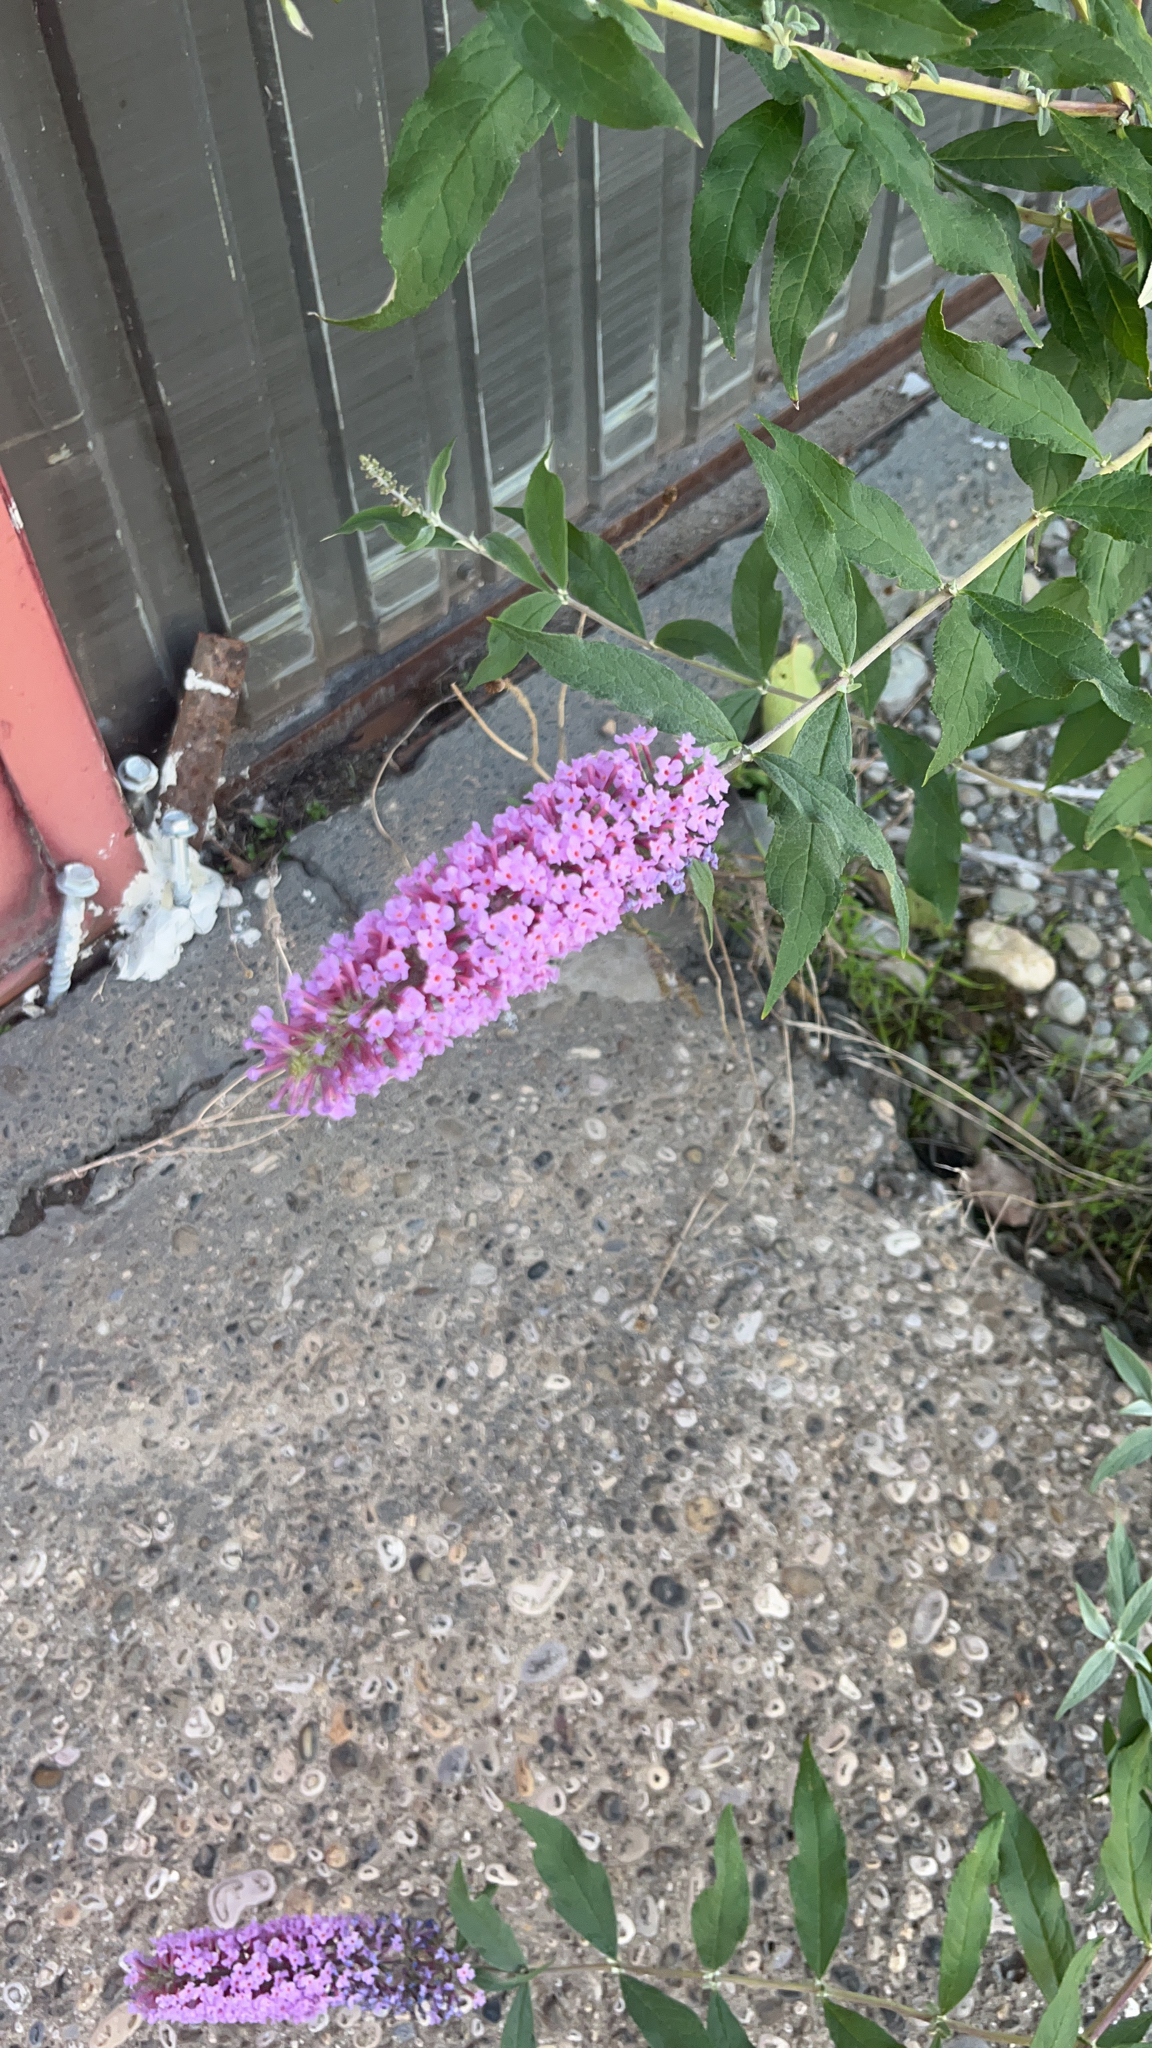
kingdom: Plantae
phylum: Tracheophyta
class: Magnoliopsida
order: Lamiales
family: Scrophulariaceae
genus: Buddleja
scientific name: Buddleja davidii
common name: Butterfly-bush
